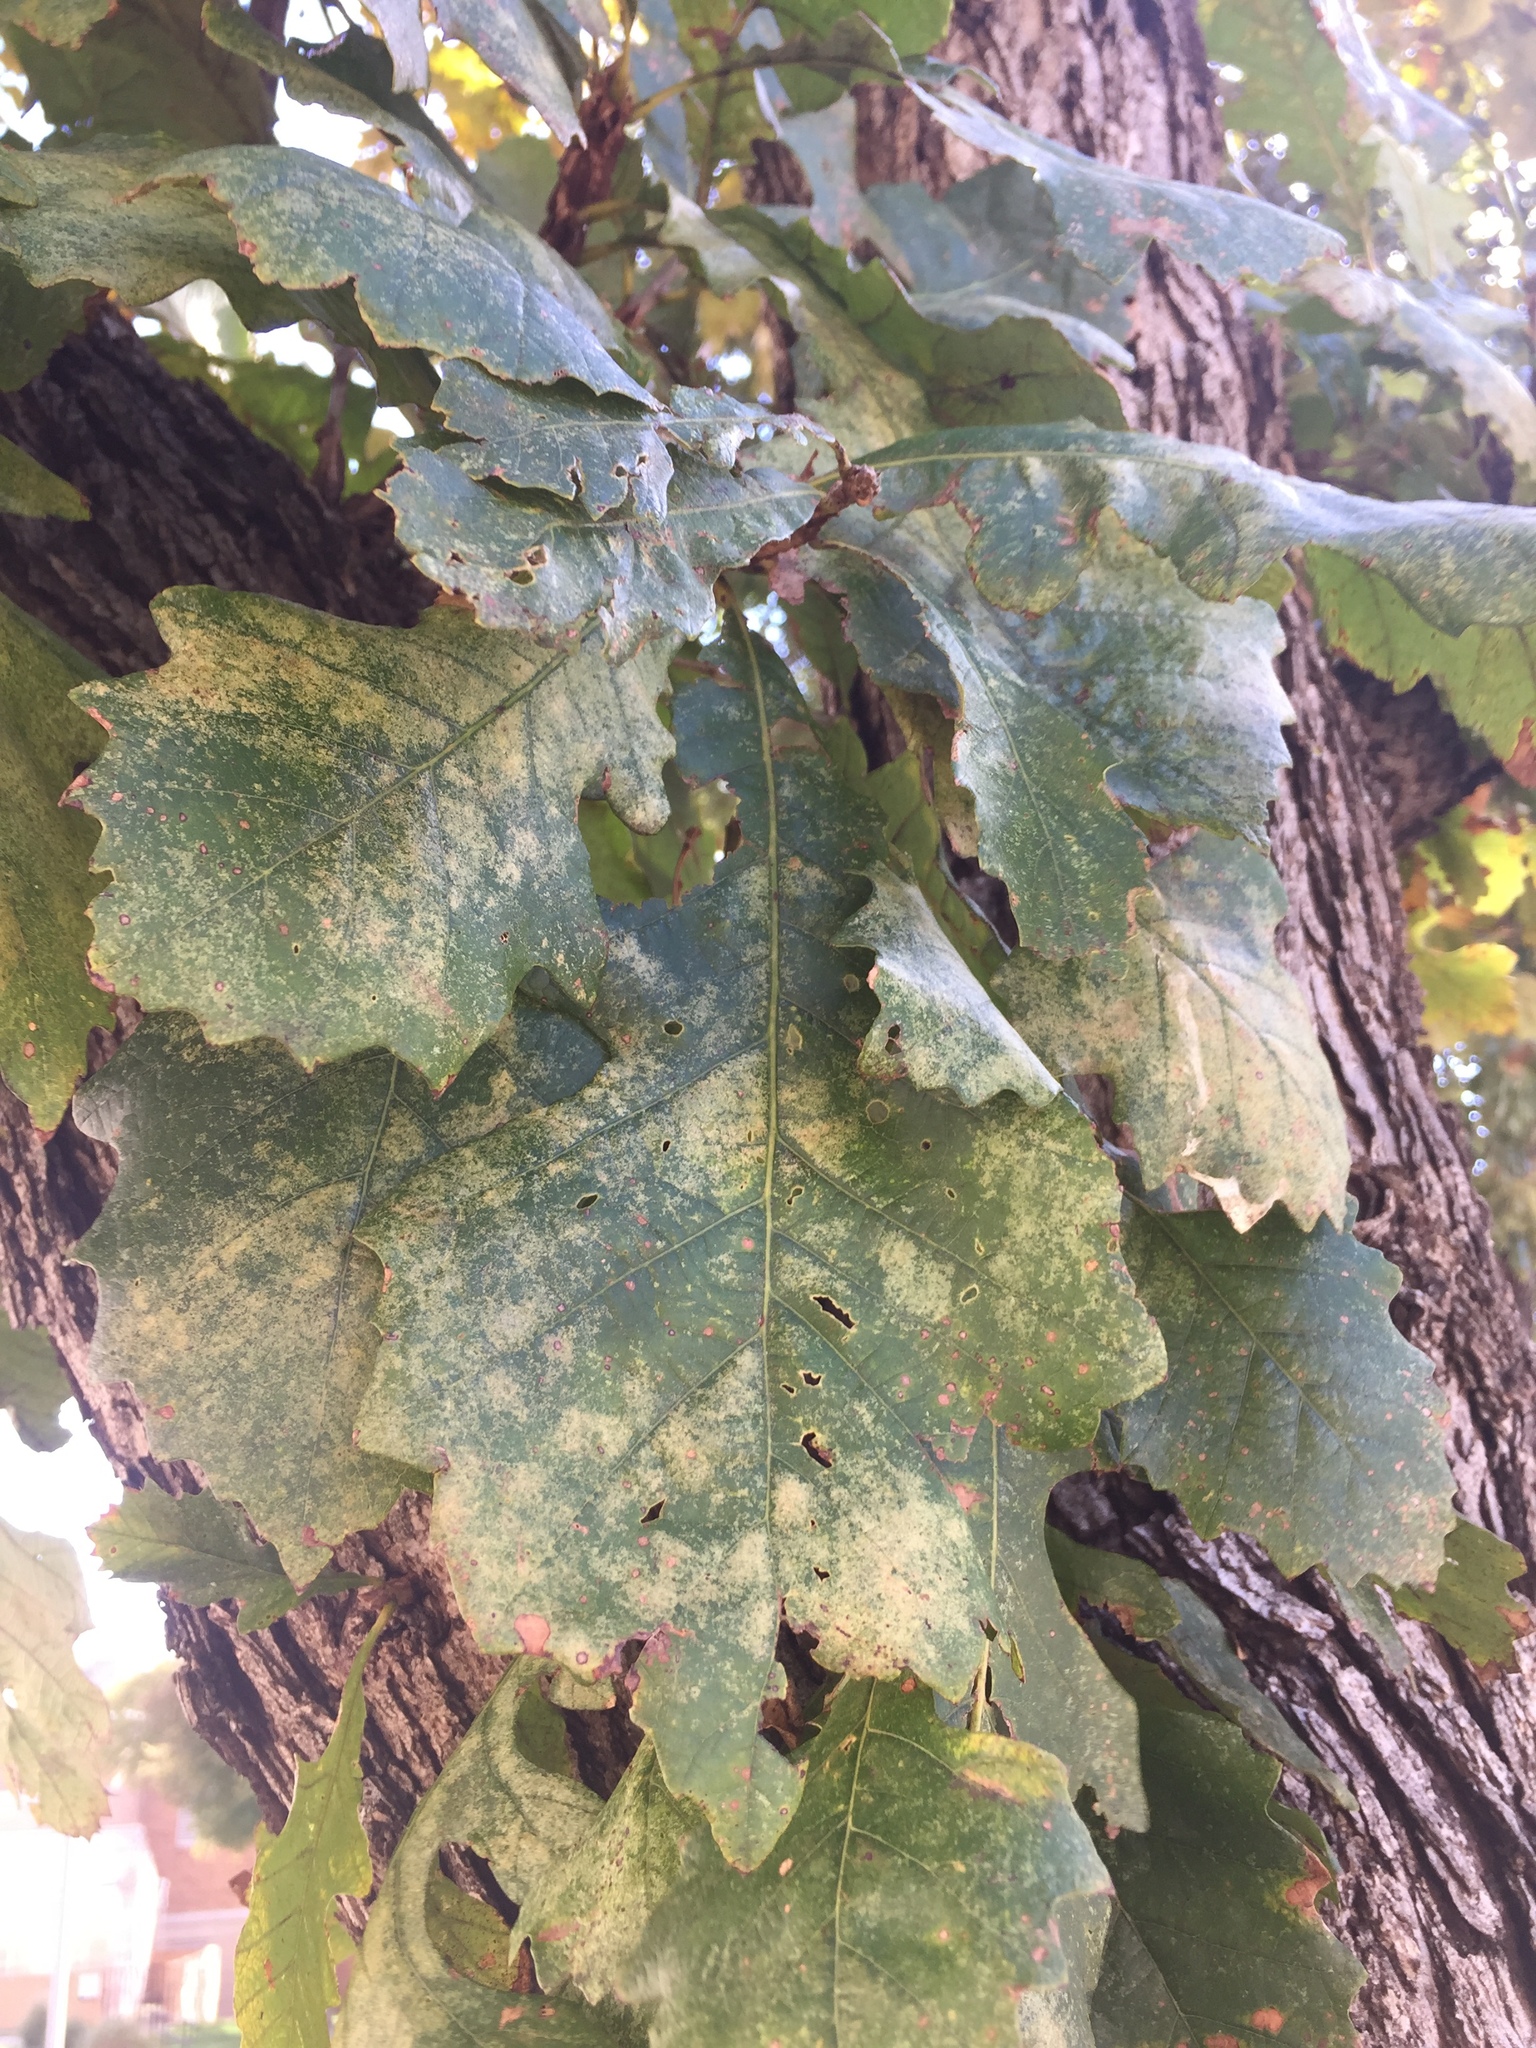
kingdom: Plantae
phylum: Tracheophyta
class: Magnoliopsida
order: Fagales
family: Fagaceae
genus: Quercus
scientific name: Quercus macrocarpa
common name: Bur oak
